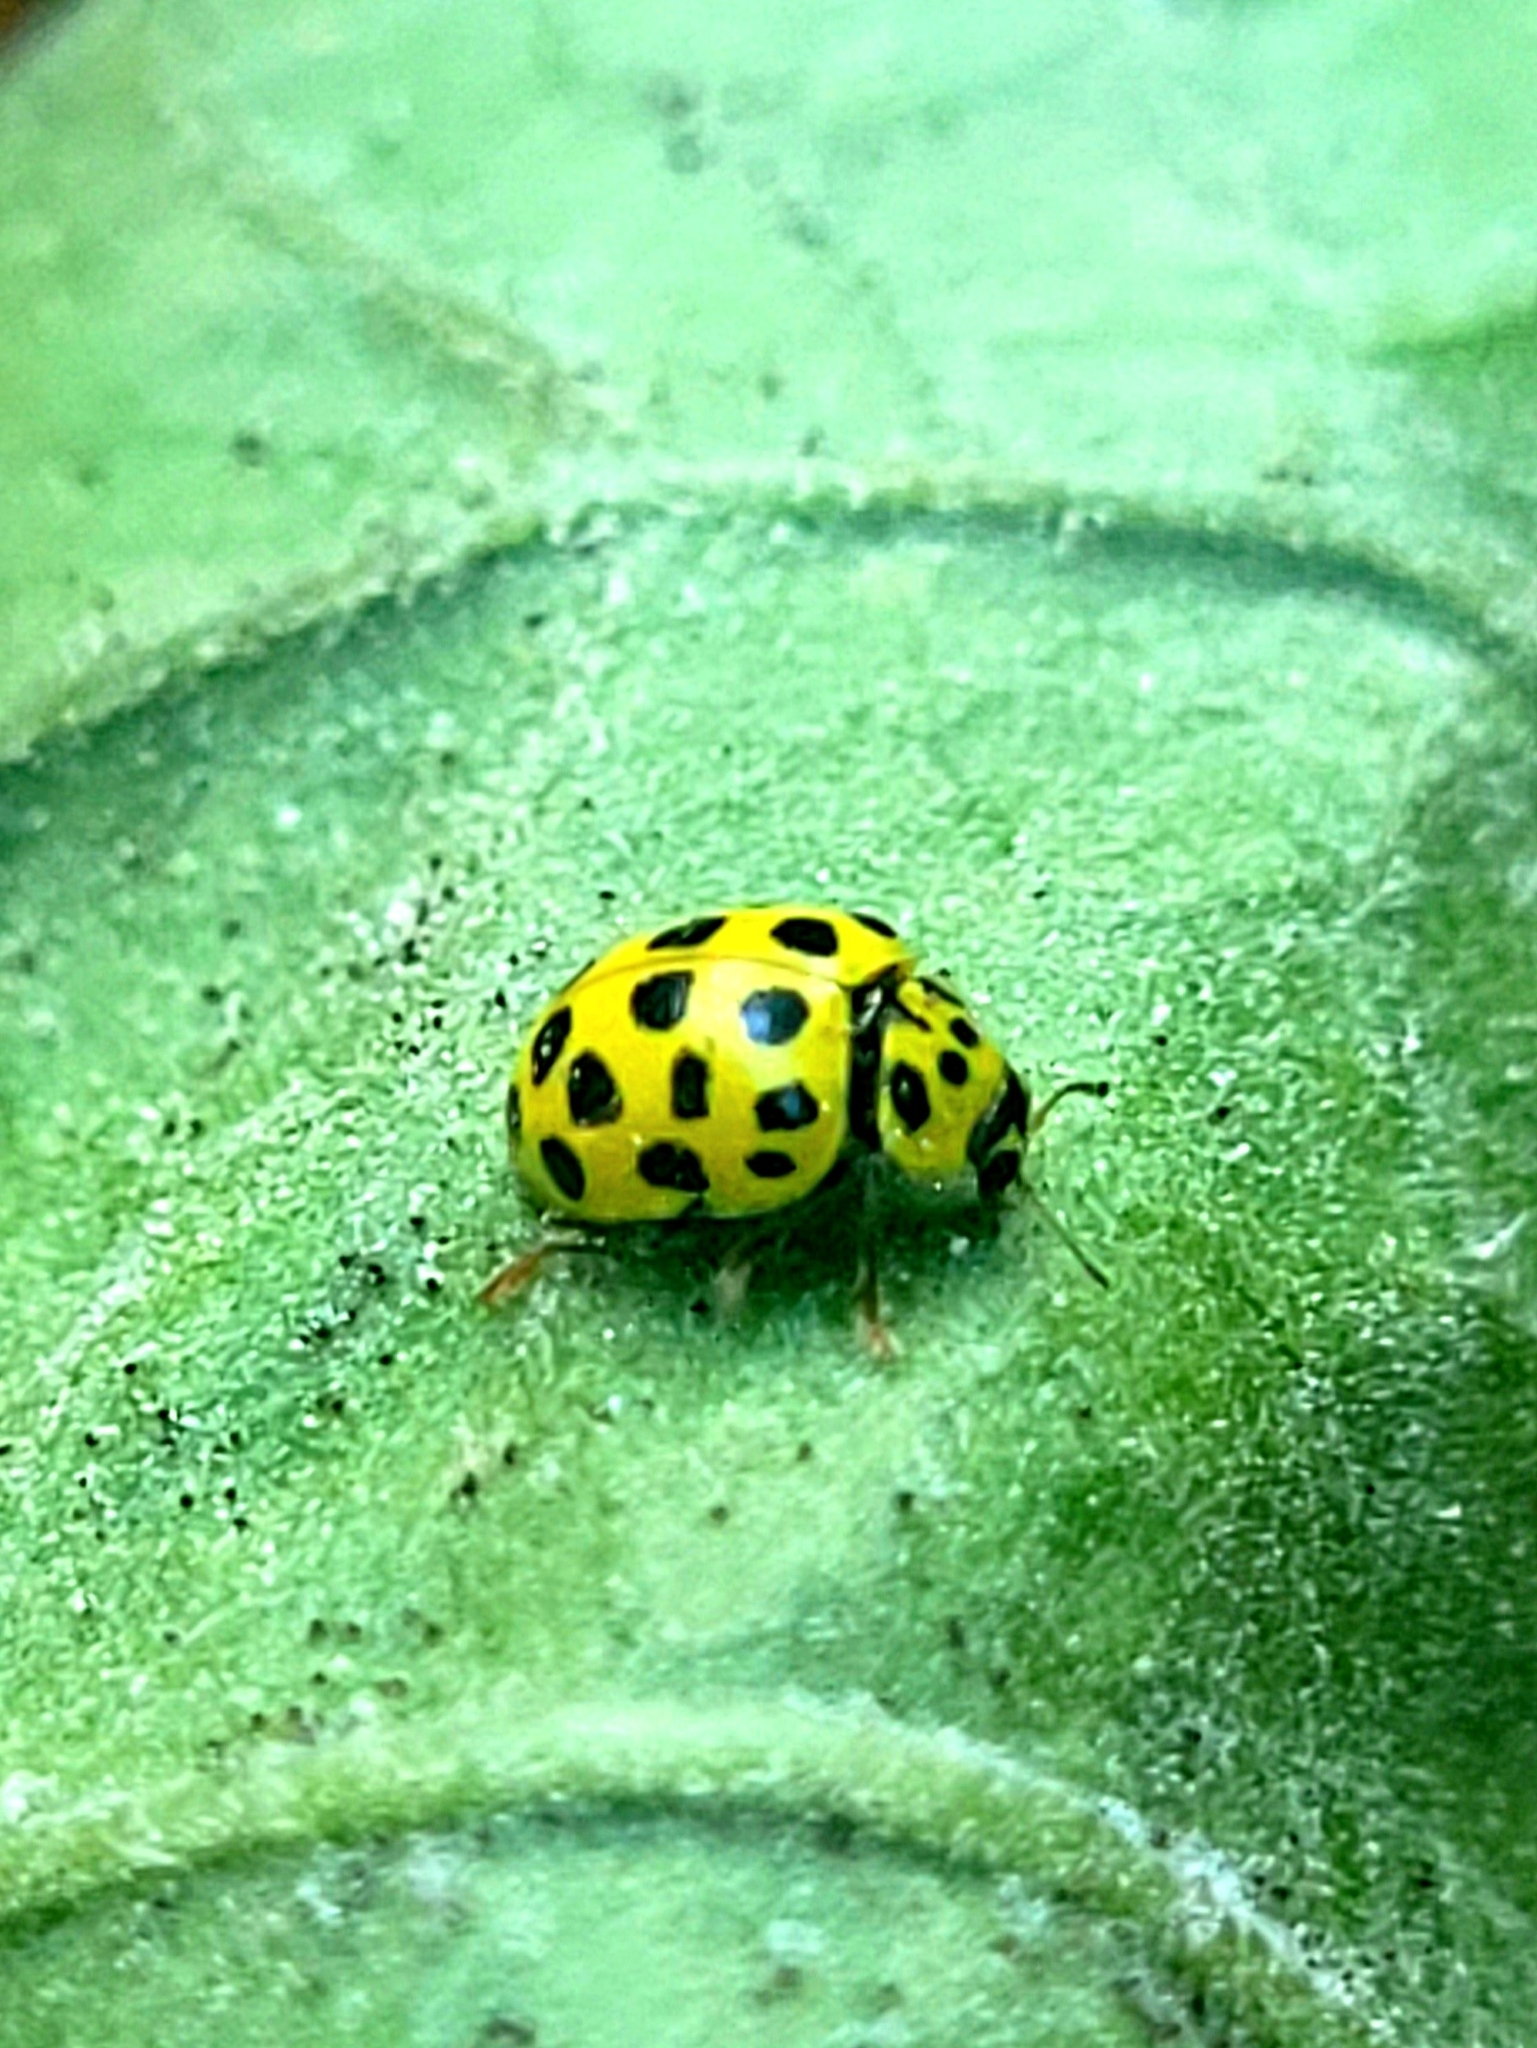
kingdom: Animalia
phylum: Arthropoda
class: Insecta
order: Coleoptera
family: Coccinellidae
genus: Psyllobora
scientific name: Psyllobora vigintiduopunctata
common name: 22-spot ladybird
